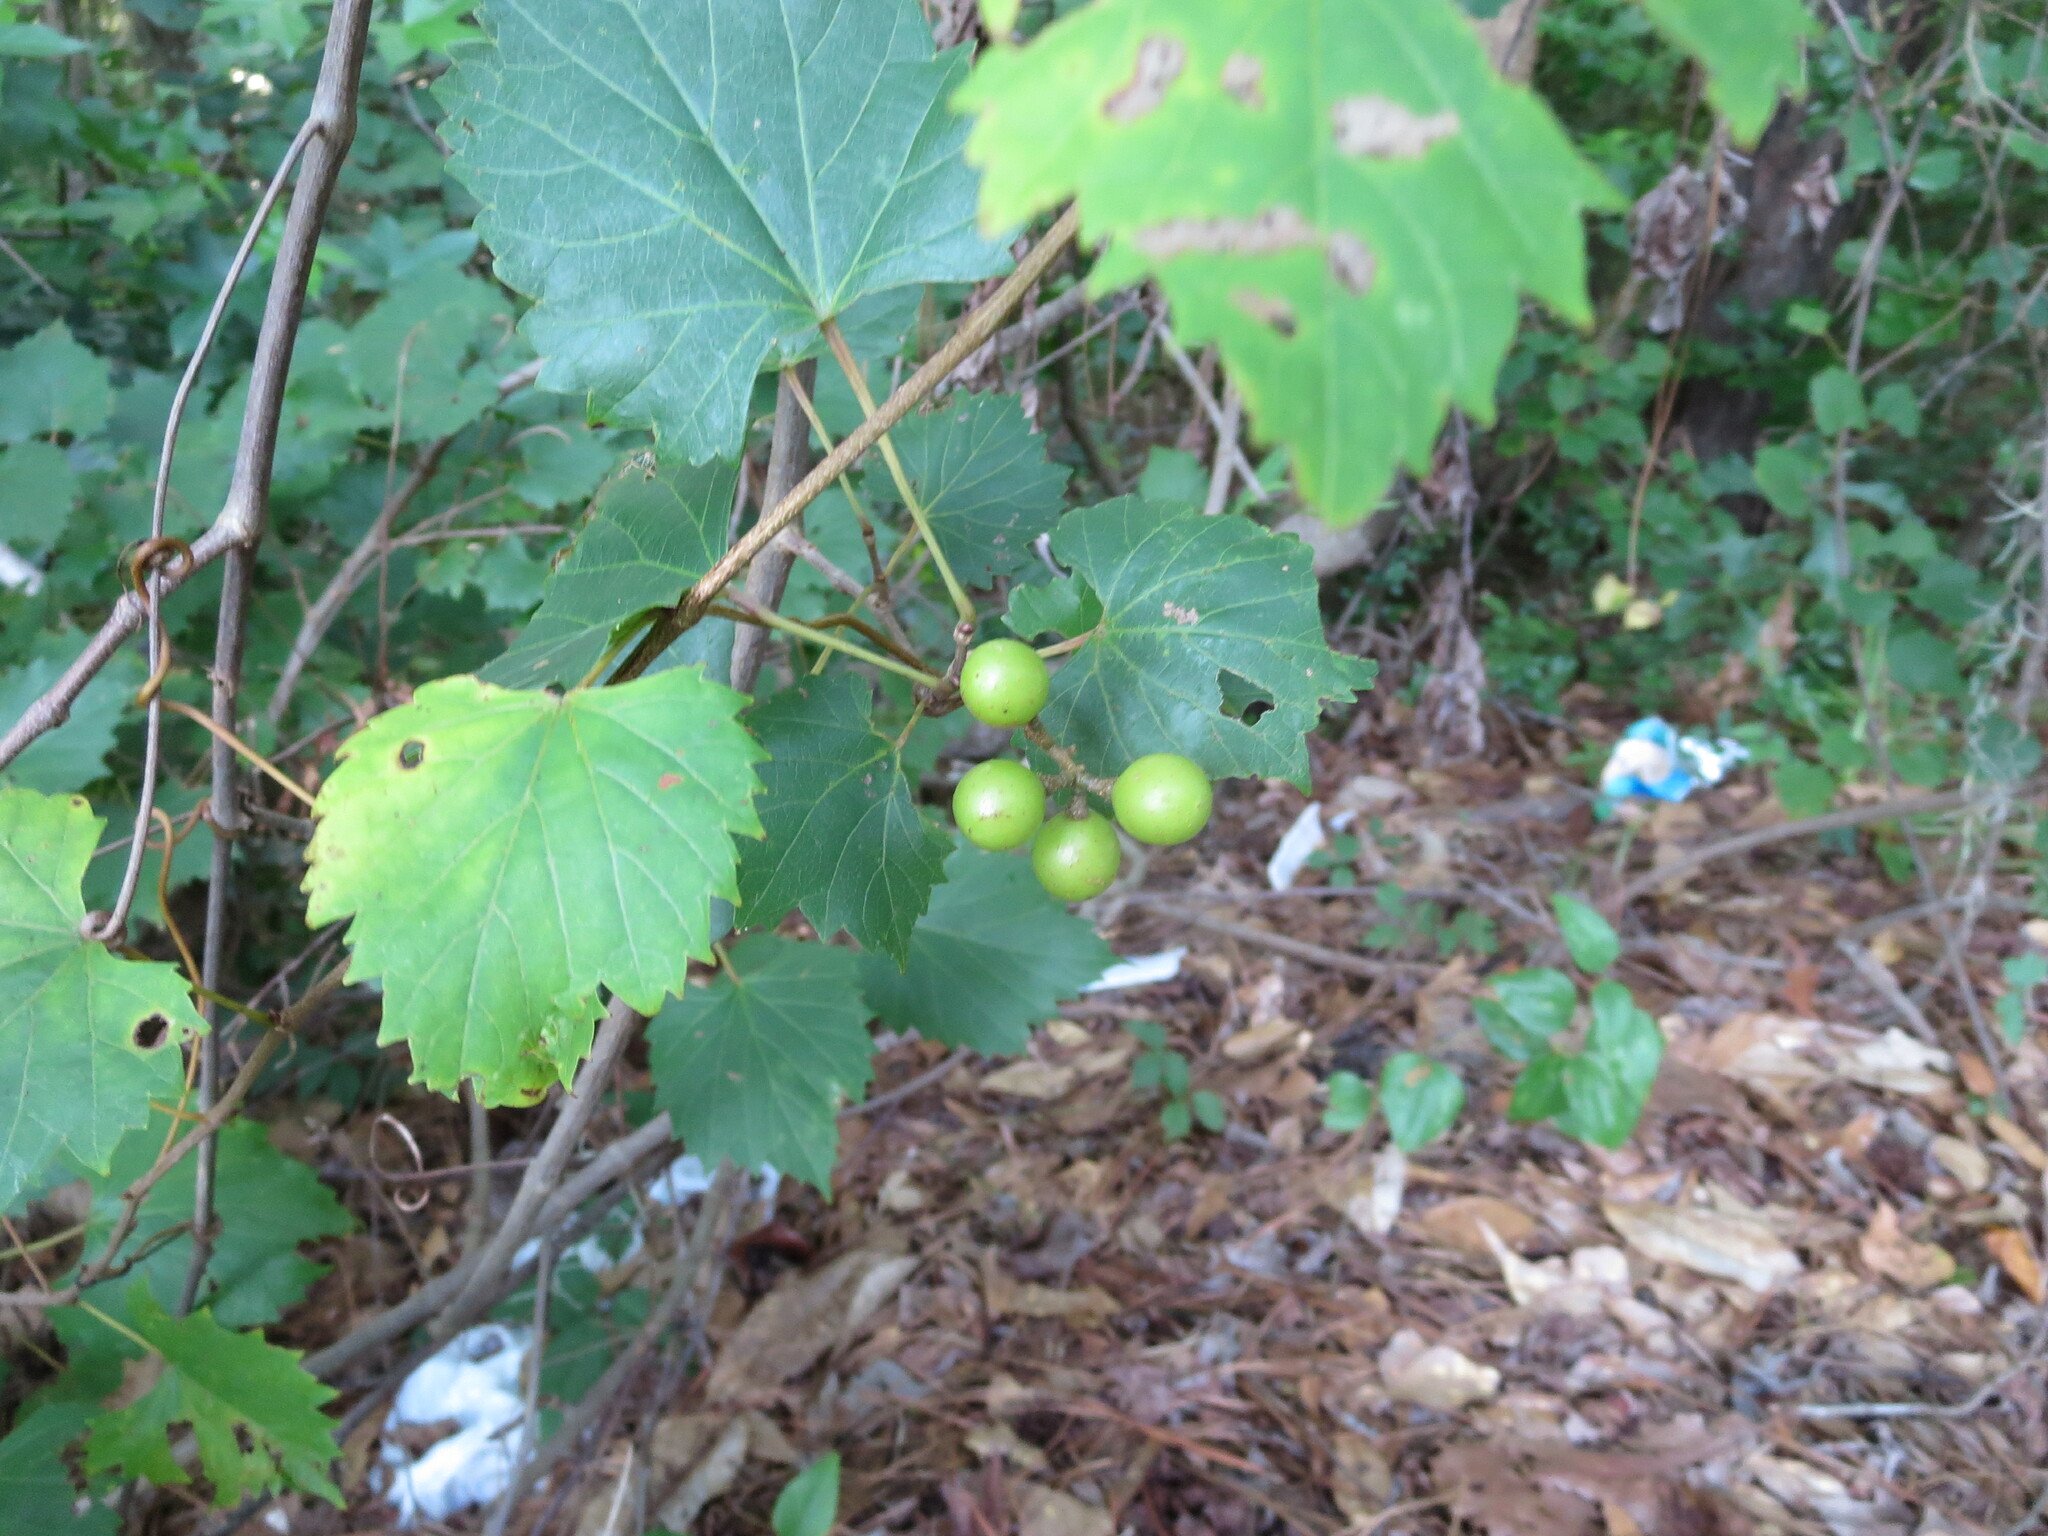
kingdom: Plantae
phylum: Tracheophyta
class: Magnoliopsida
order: Vitales
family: Vitaceae
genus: Vitis
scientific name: Vitis rotundifolia
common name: Muscadine grape
